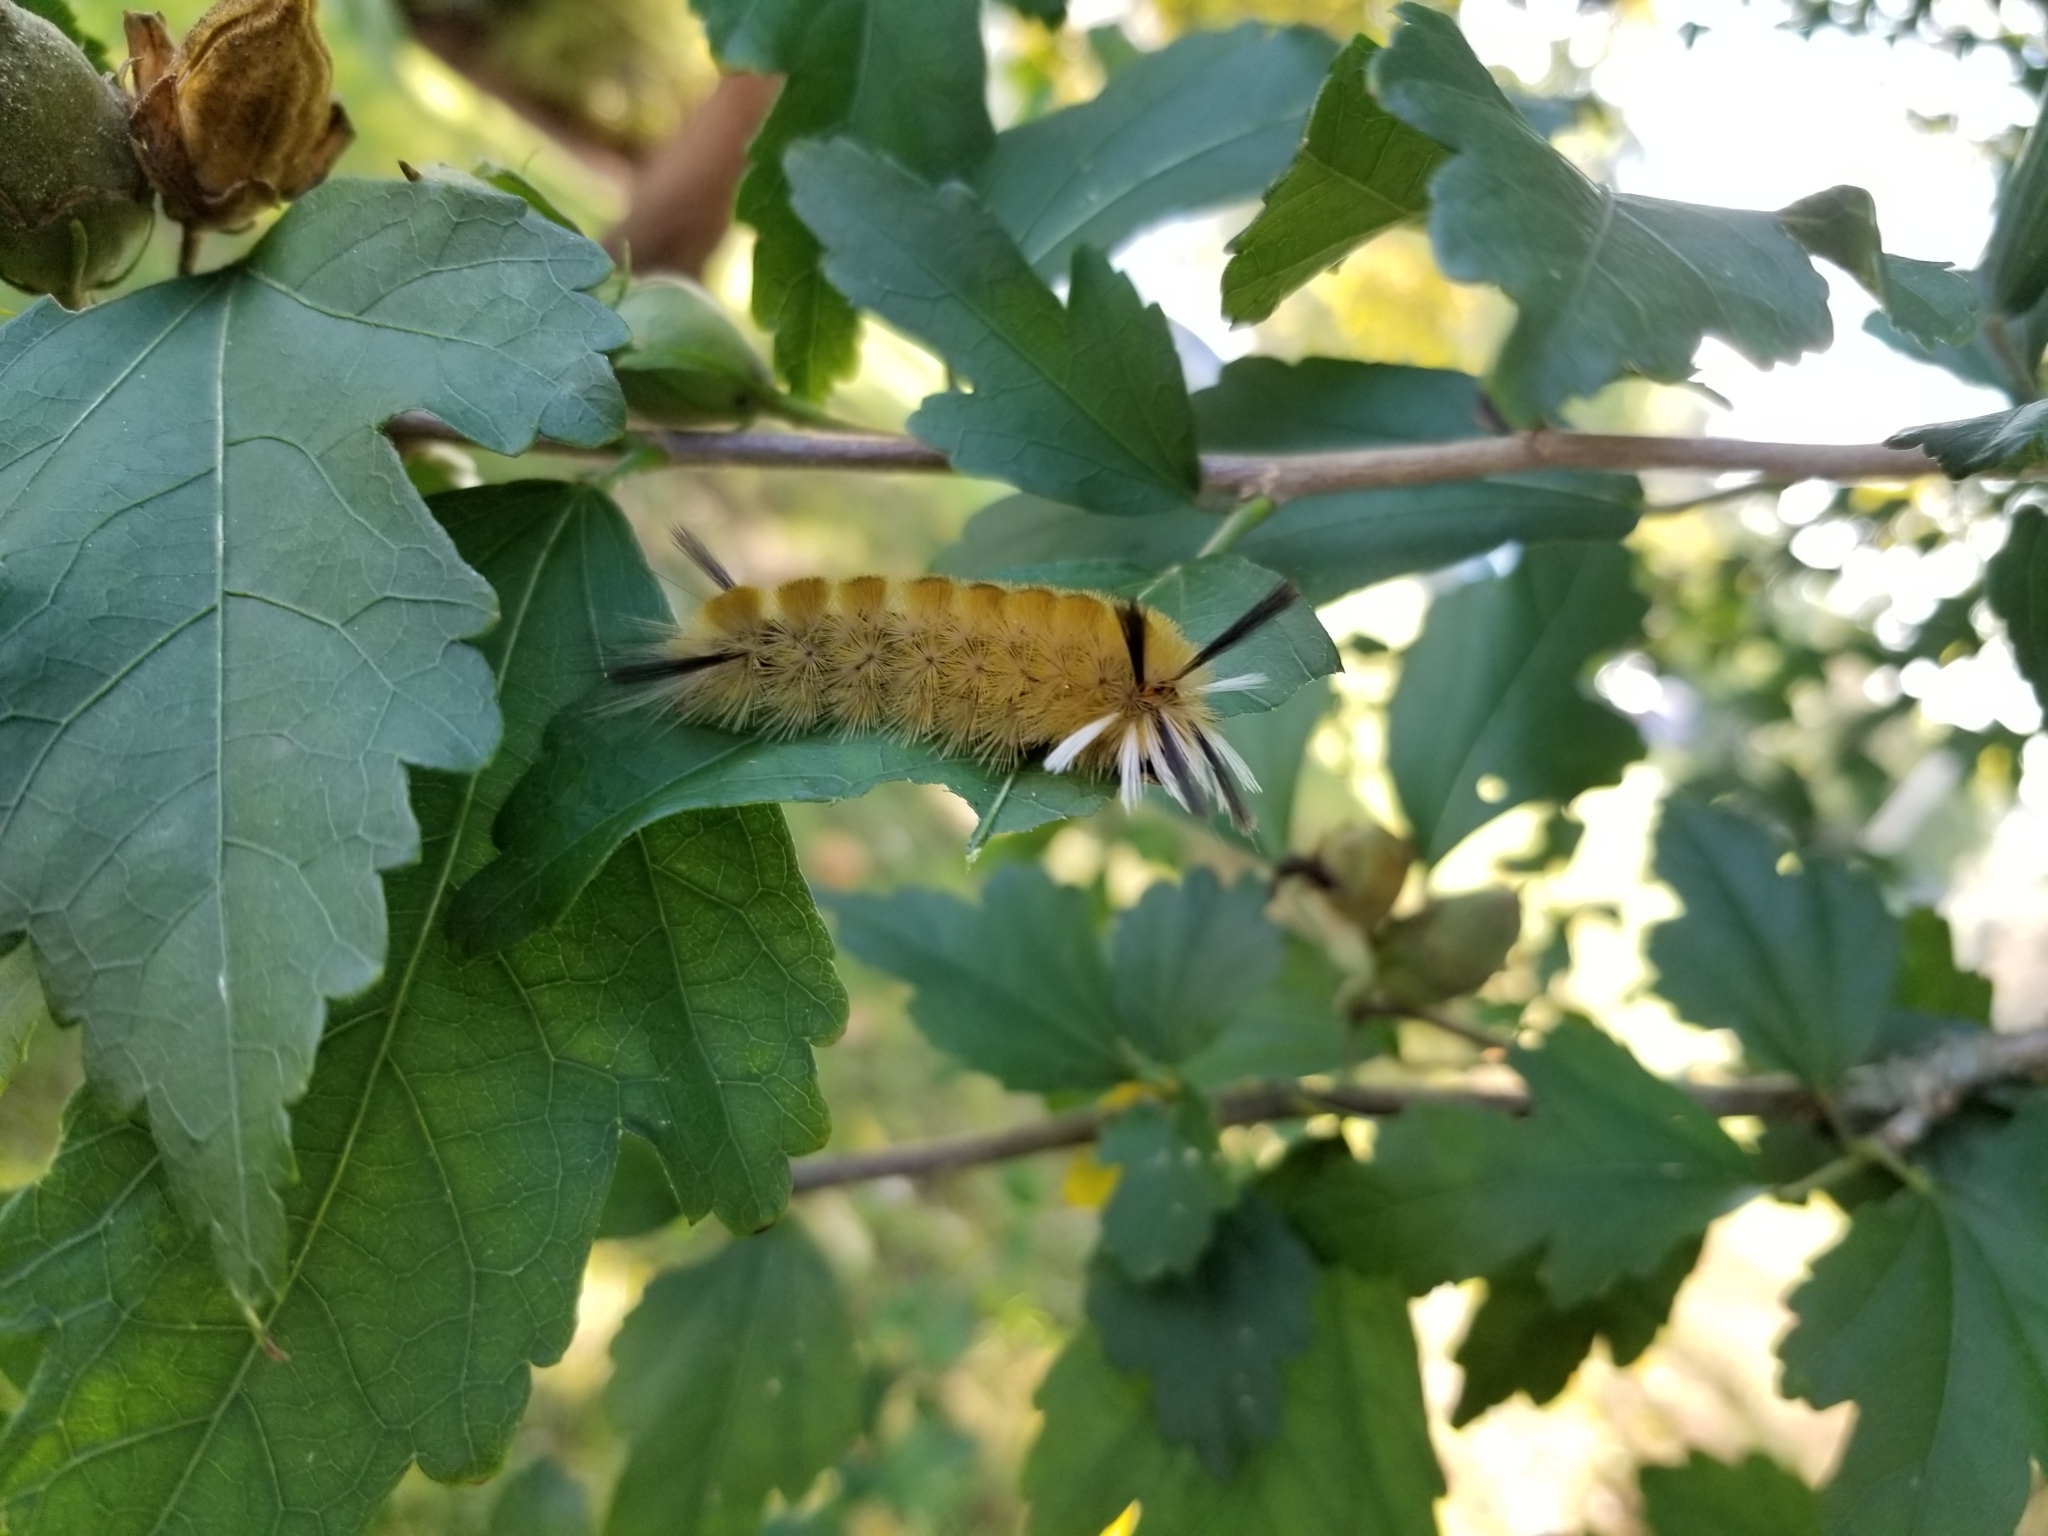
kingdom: Animalia
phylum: Arthropoda
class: Insecta
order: Lepidoptera
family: Erebidae
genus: Halysidota
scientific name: Halysidota tessellaris
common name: Banded tussock moth
